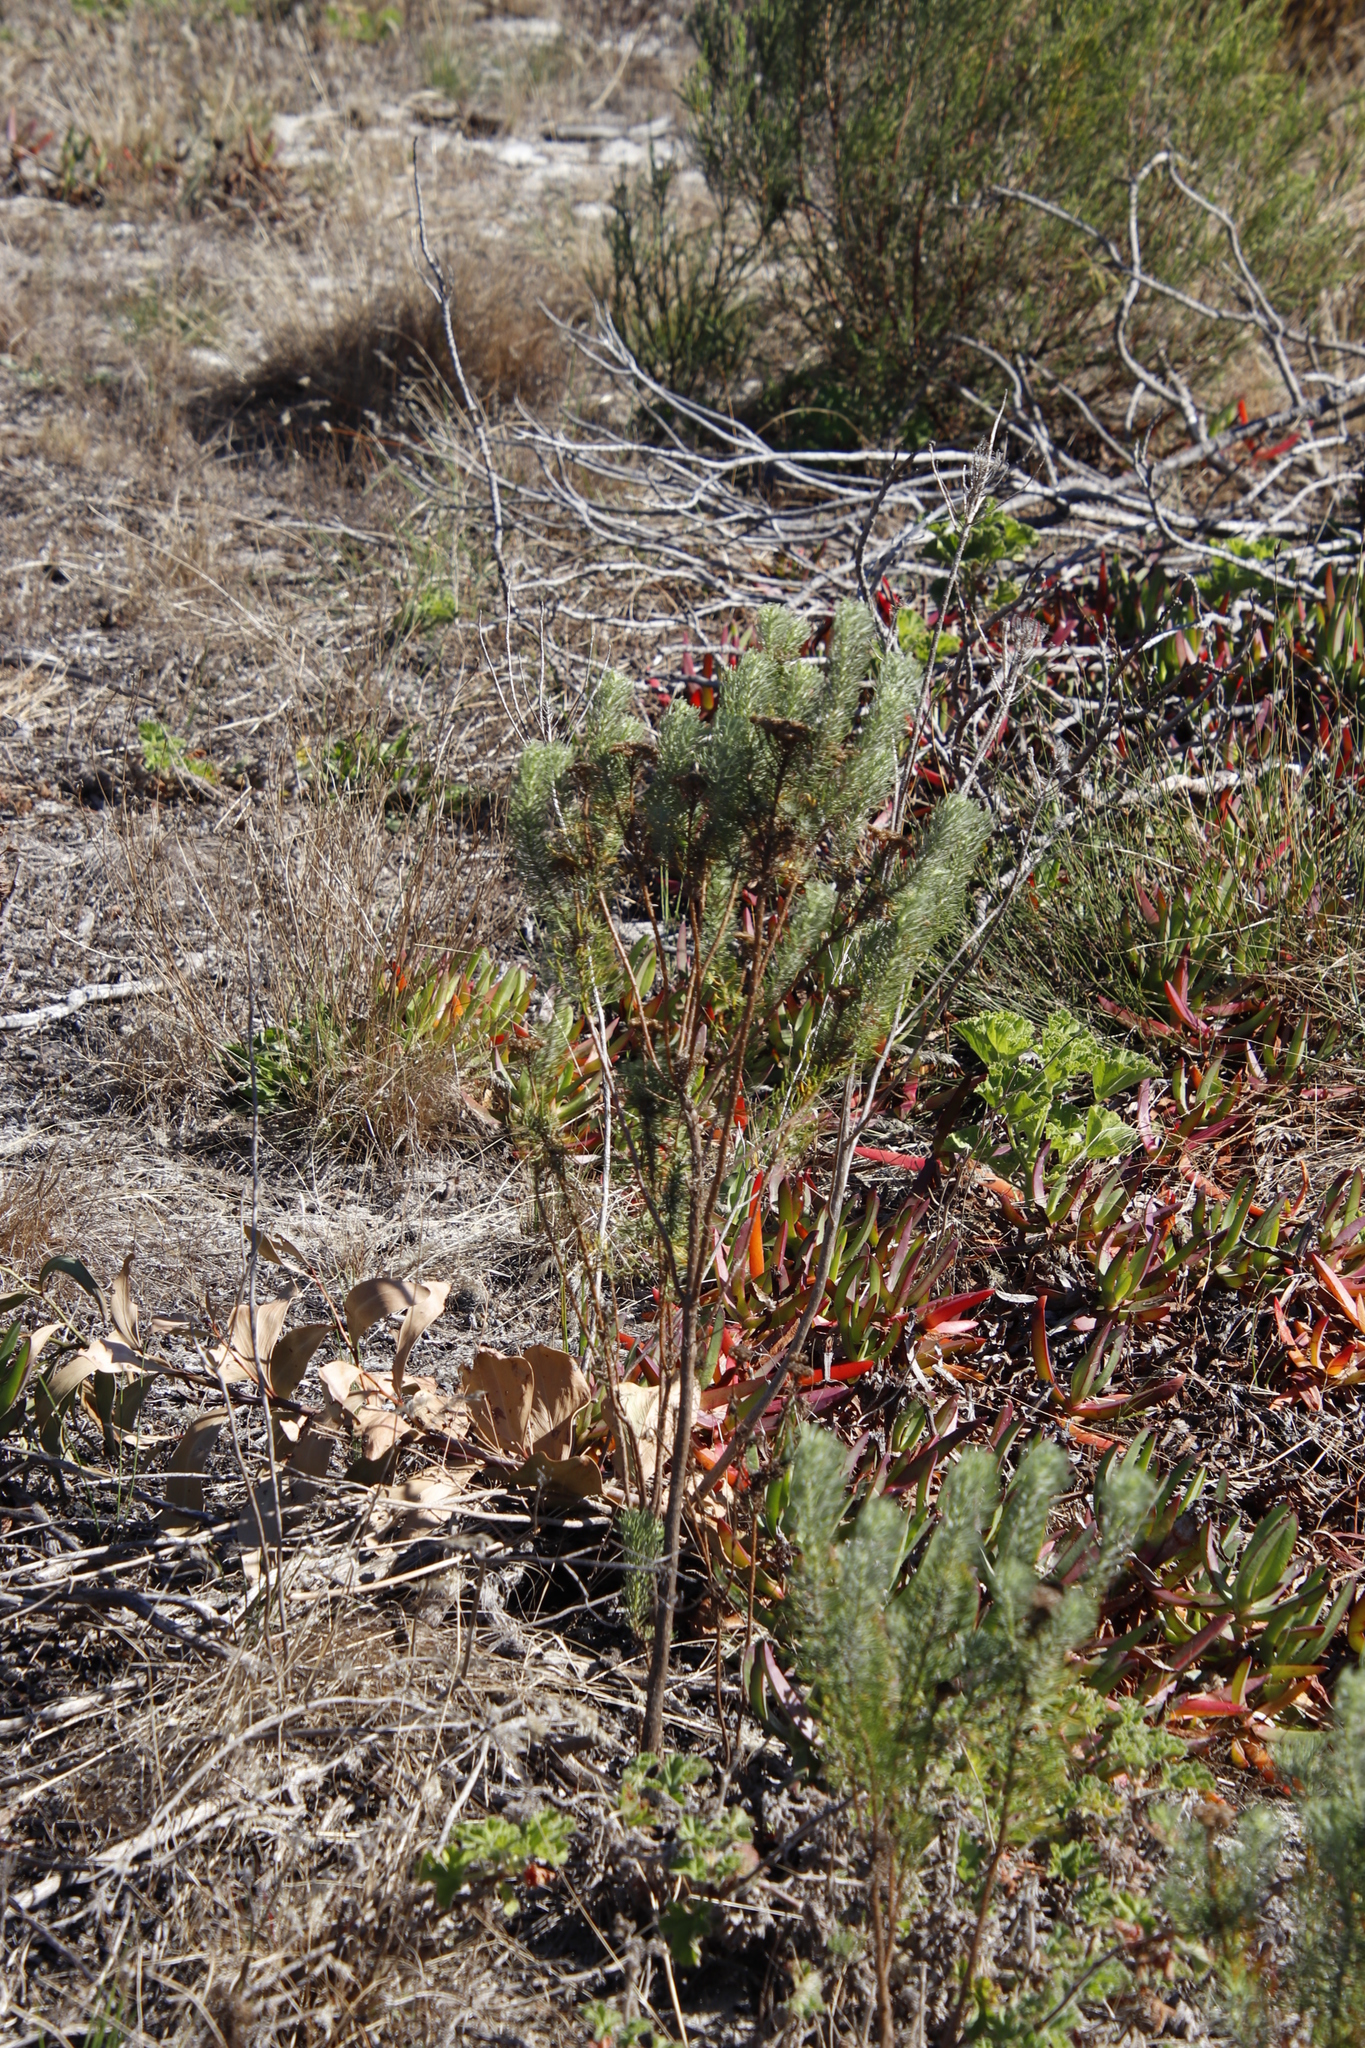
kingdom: Plantae
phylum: Tracheophyta
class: Magnoliopsida
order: Asterales
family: Asteraceae
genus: Athanasia
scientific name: Athanasia crithmifolia
